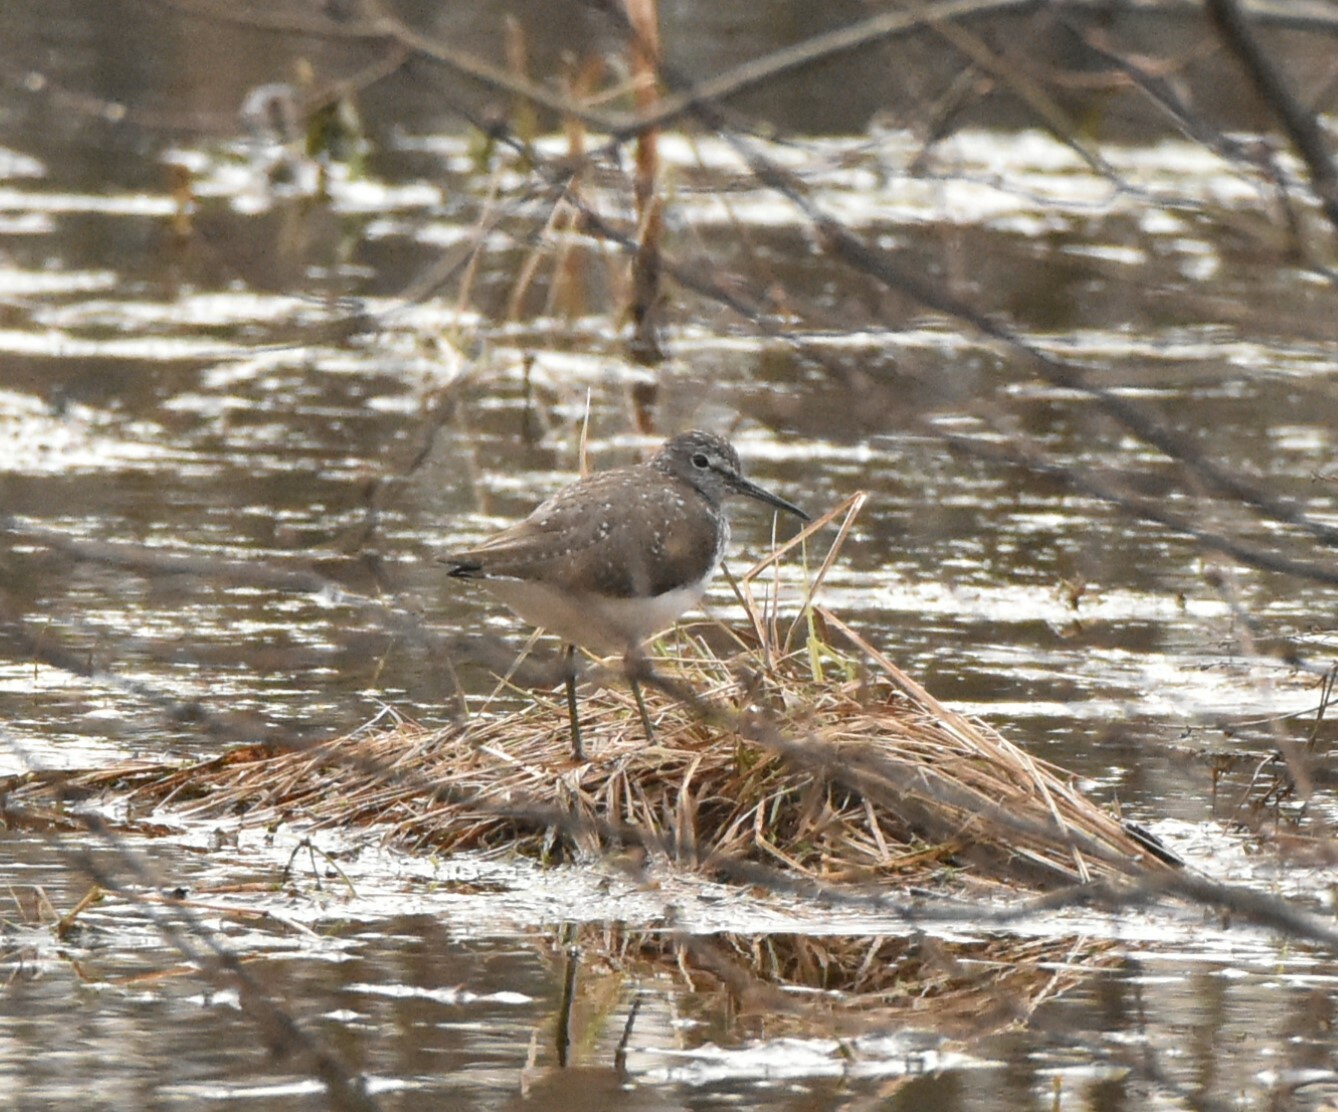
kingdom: Animalia
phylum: Chordata
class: Aves
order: Charadriiformes
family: Scolopacidae
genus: Tringa
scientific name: Tringa ochropus
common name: Green sandpiper
